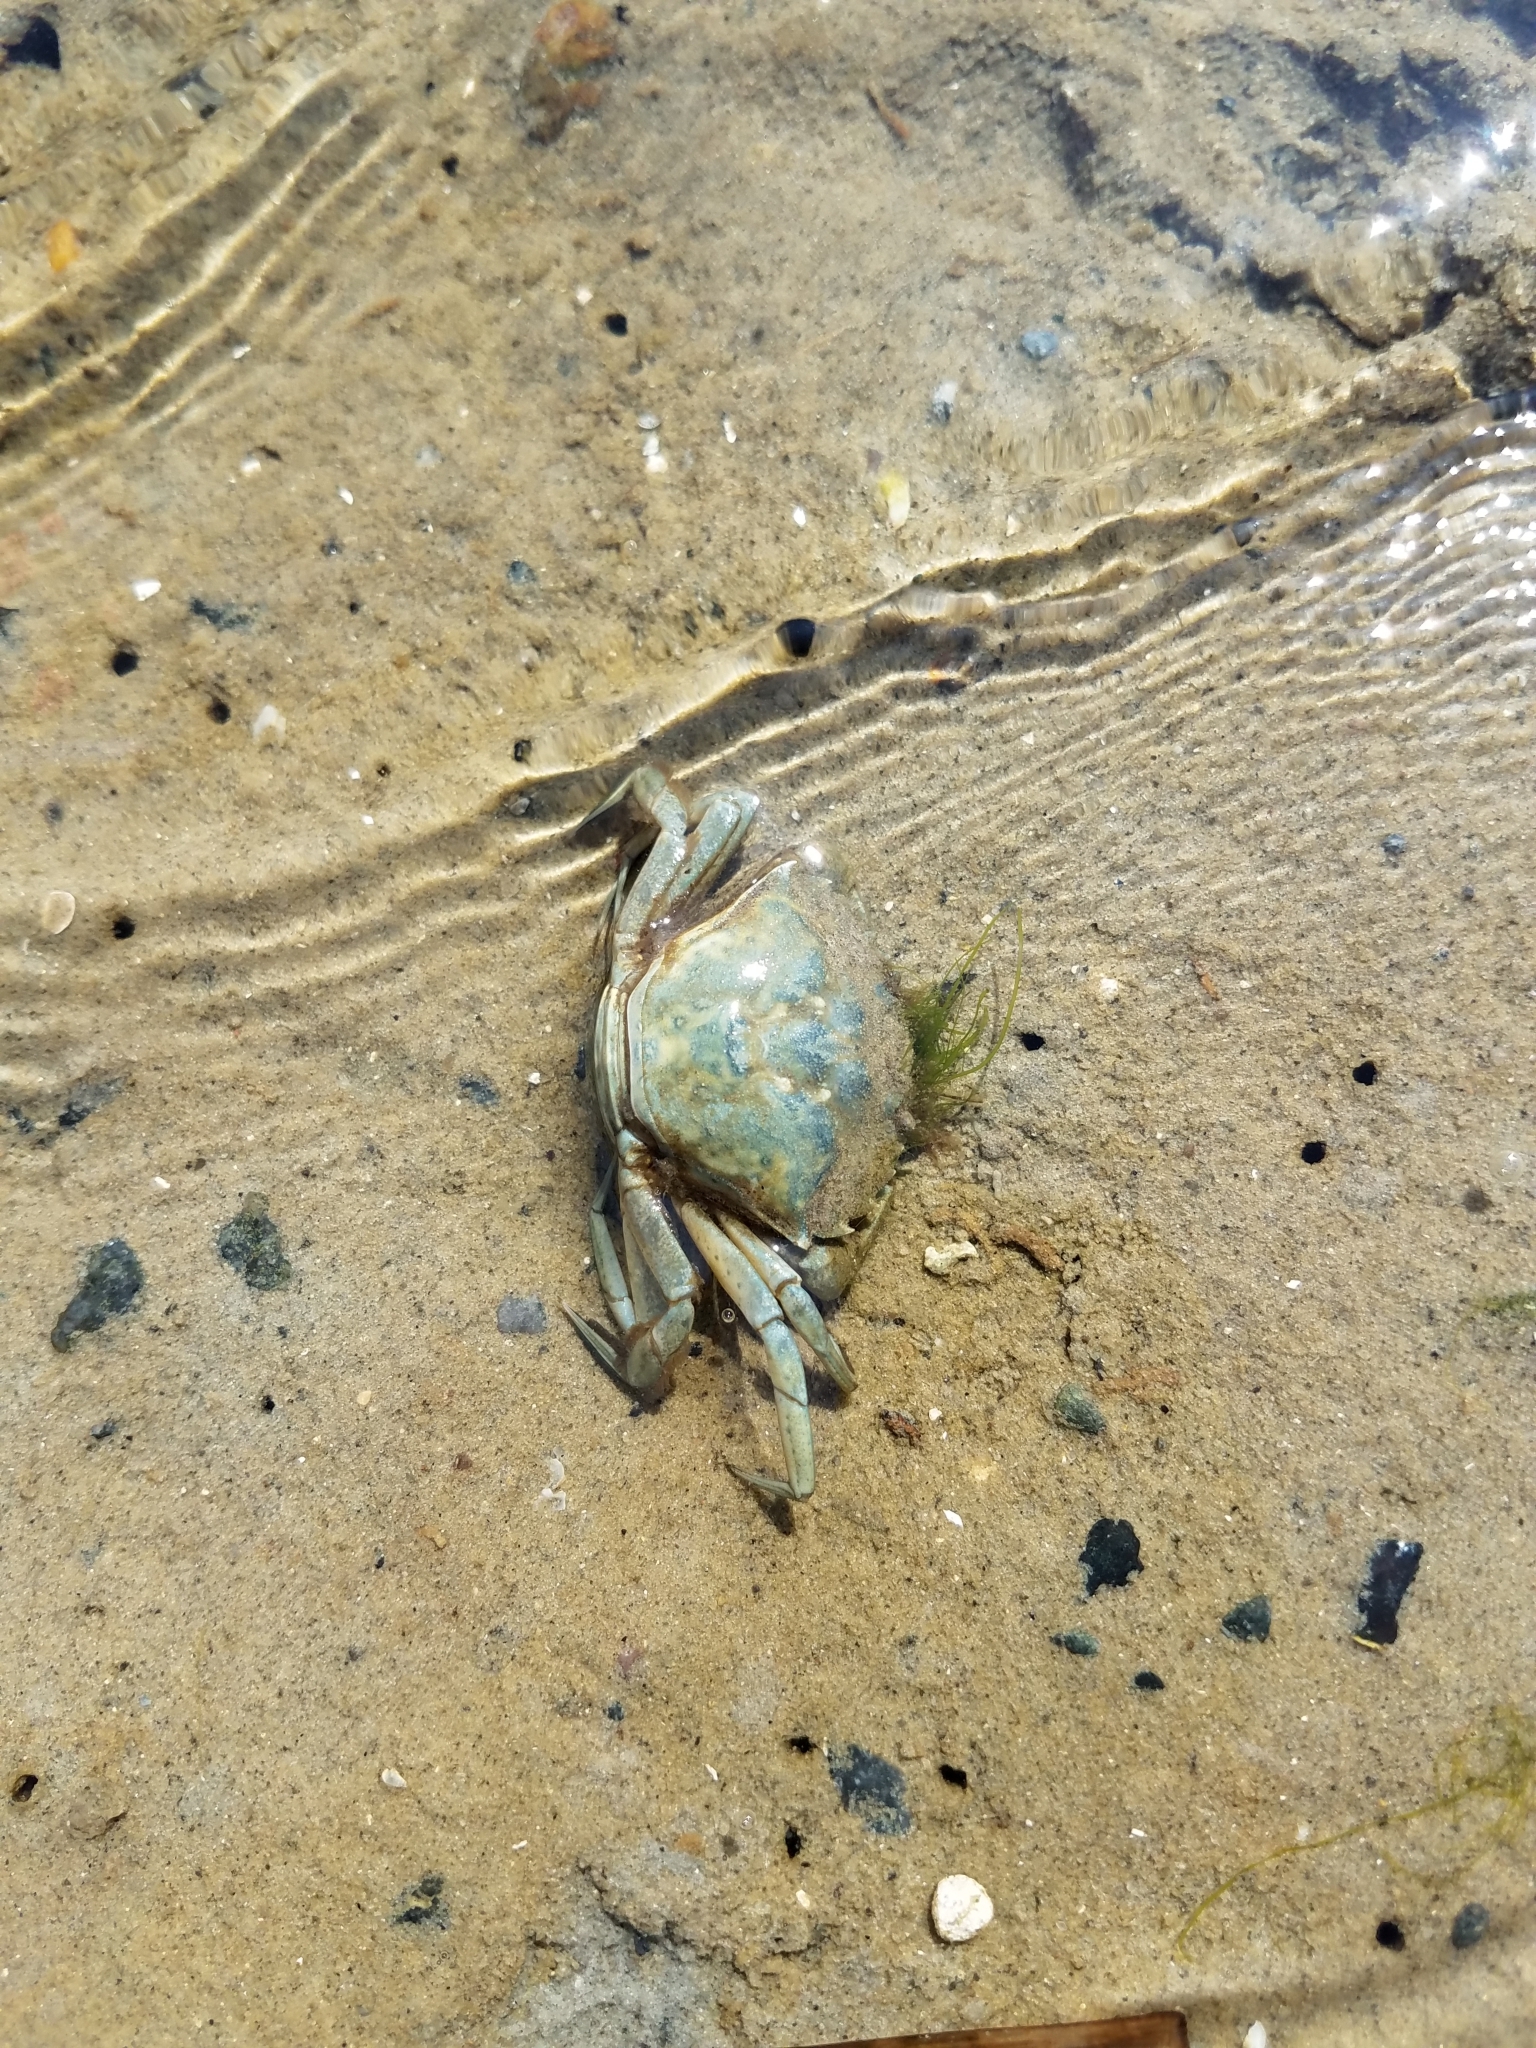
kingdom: Animalia
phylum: Arthropoda
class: Malacostraca
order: Decapoda
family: Carcinidae
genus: Carcinus
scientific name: Carcinus maenas
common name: European green crab
